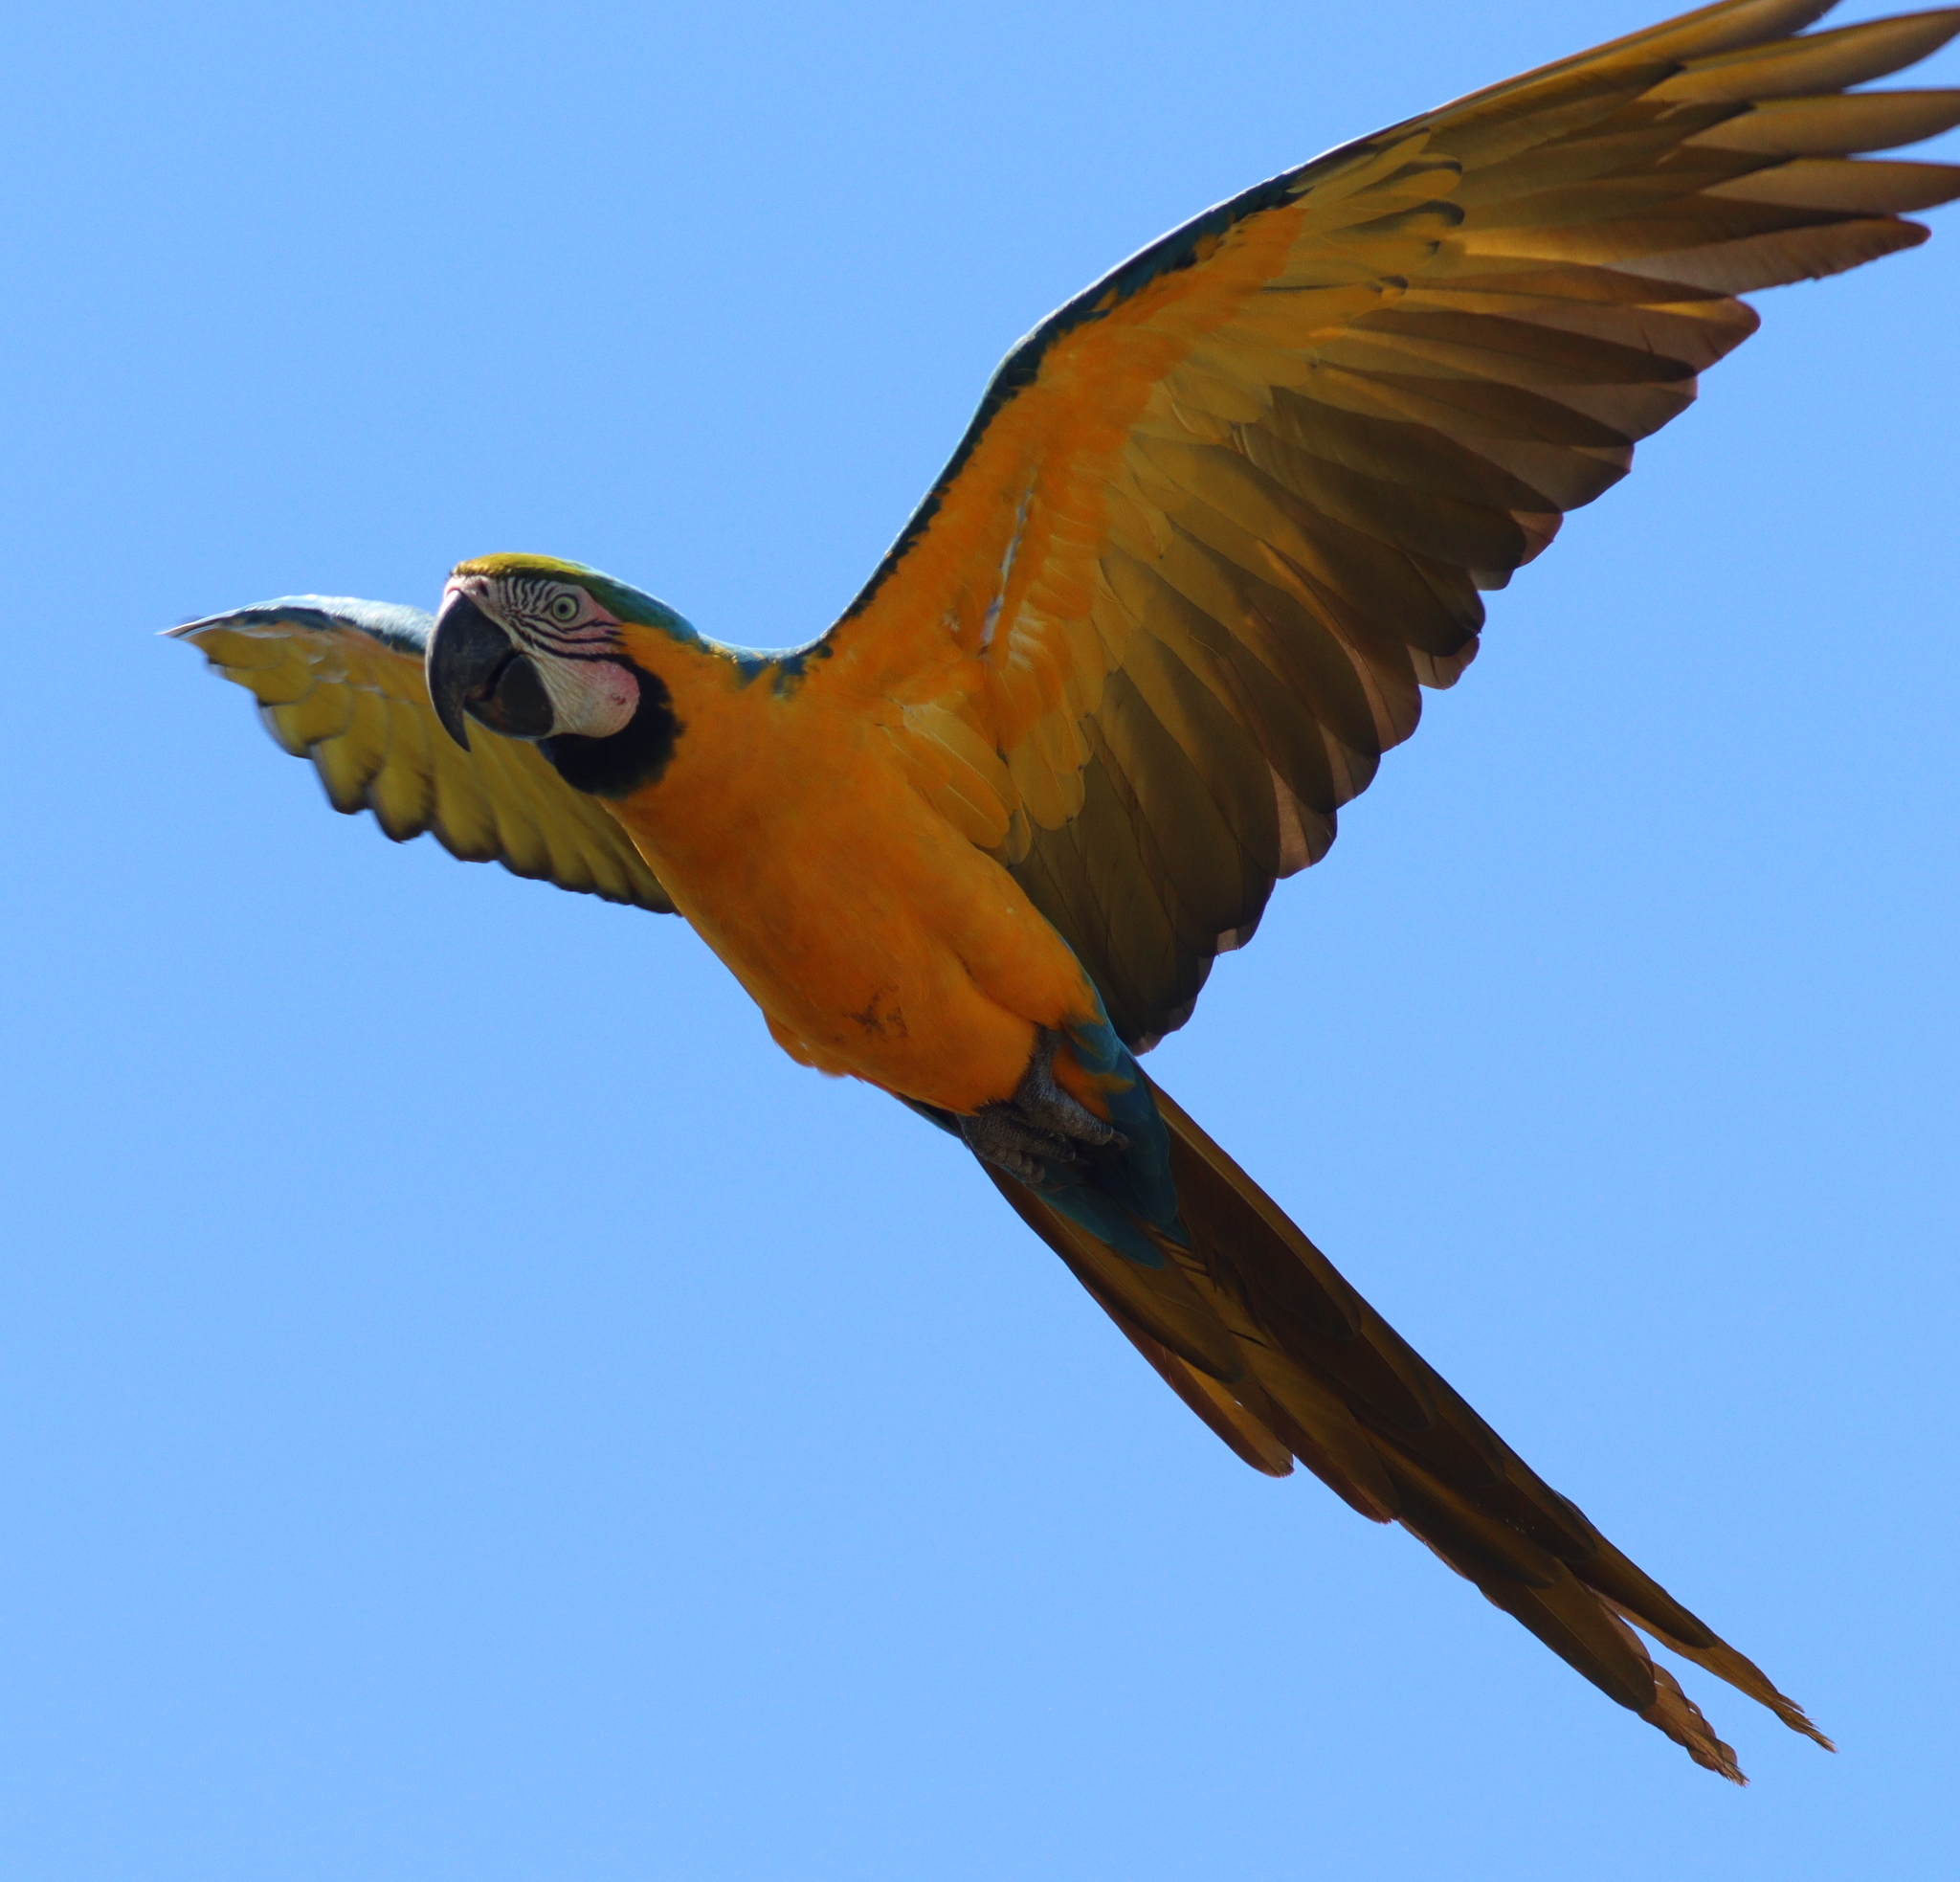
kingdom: Animalia
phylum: Chordata
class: Aves
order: Psittaciformes
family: Psittacidae
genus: Ara
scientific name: Ara ararauna
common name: Blue-and-yellow macaw
